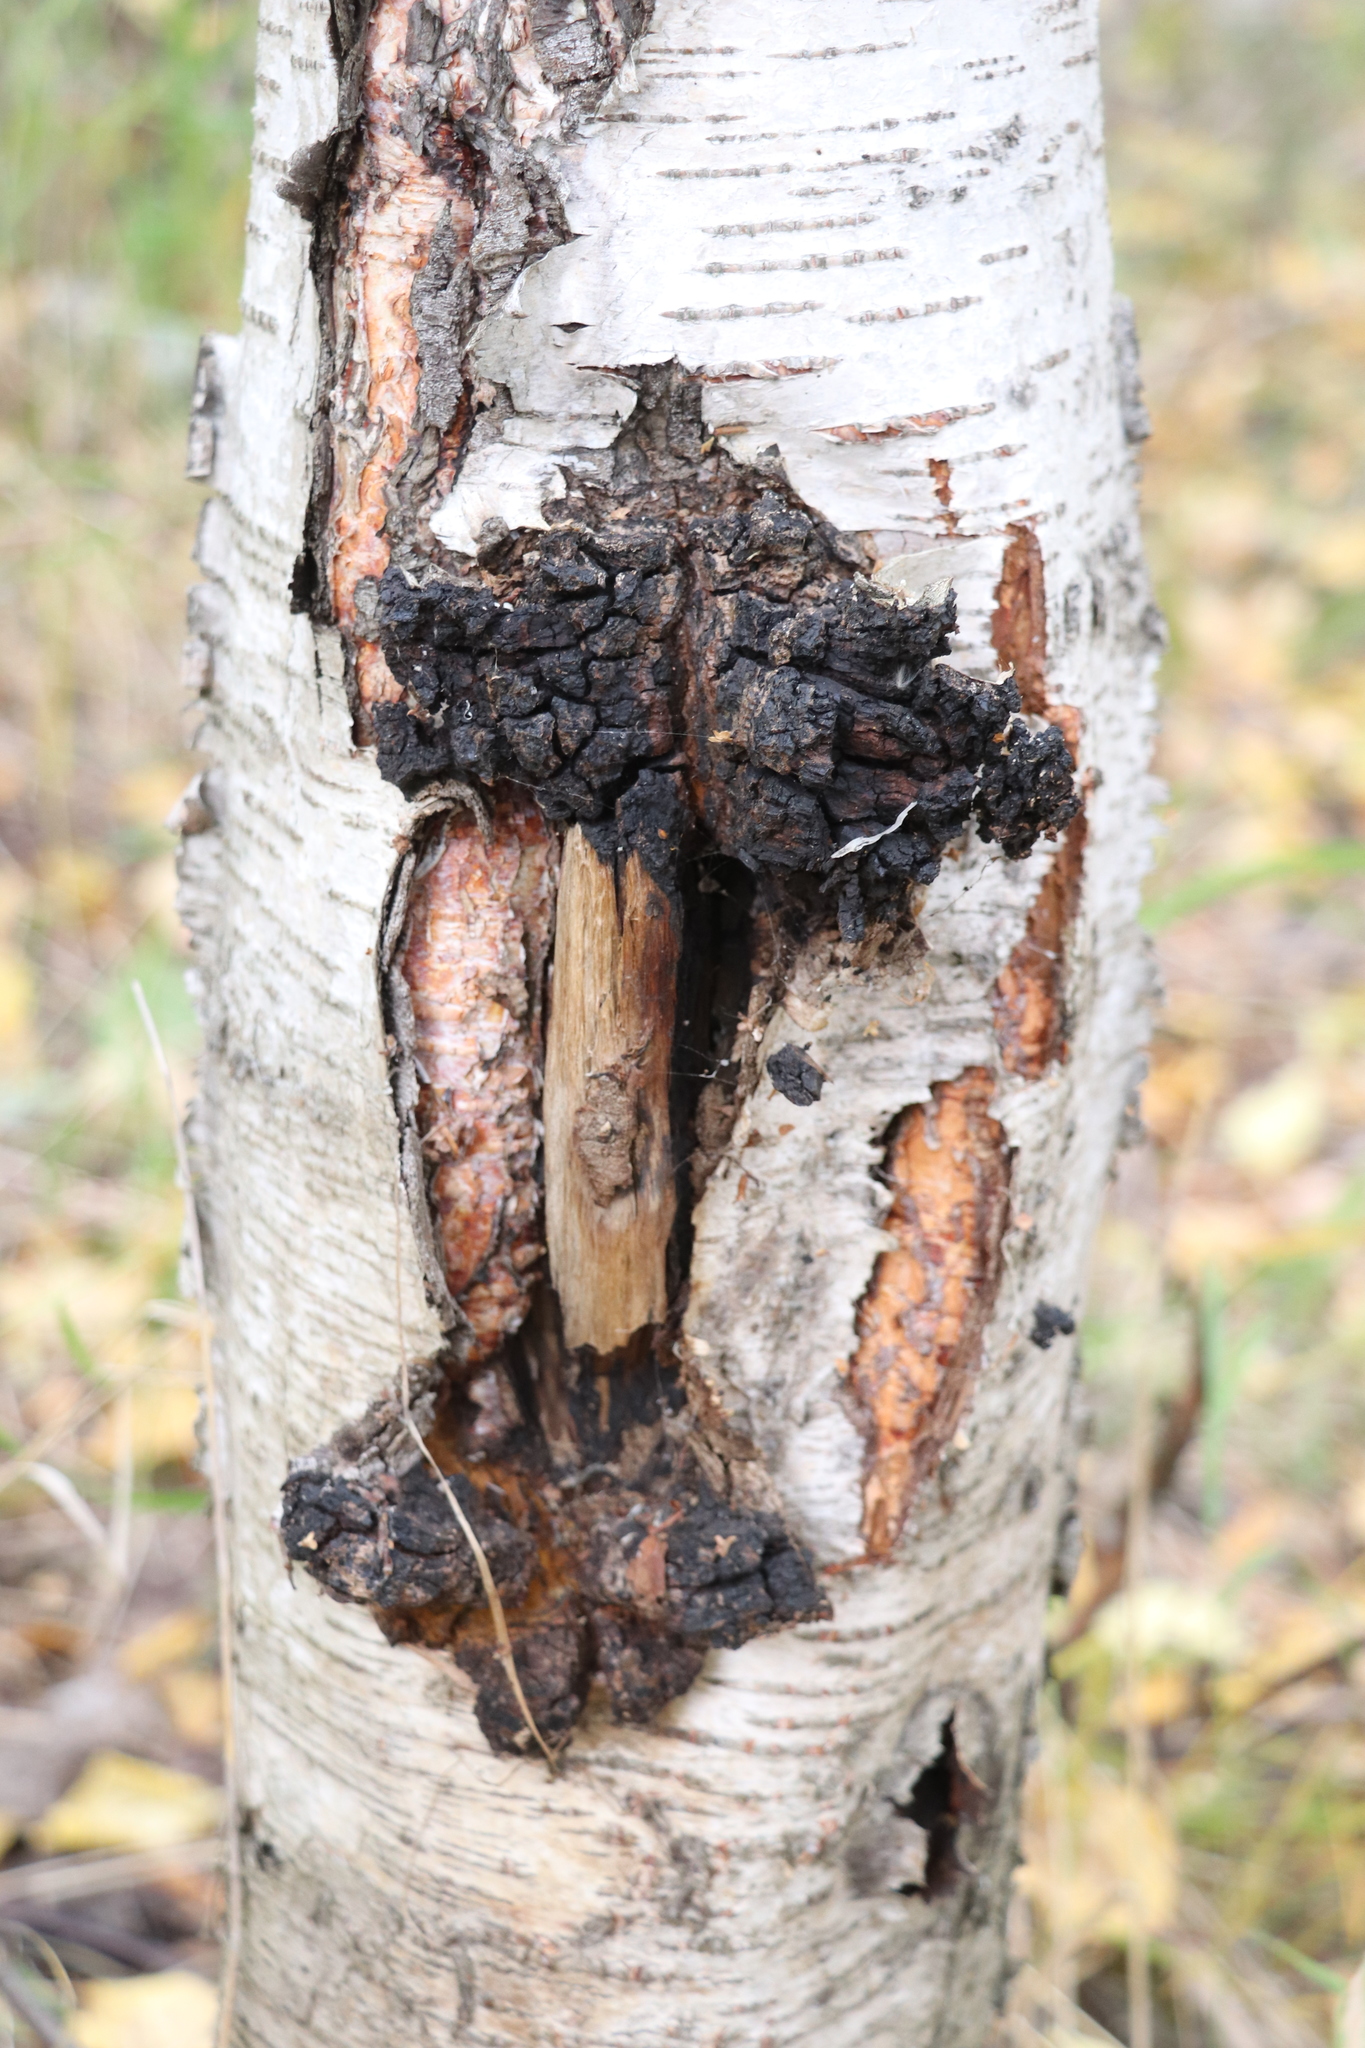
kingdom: Fungi
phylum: Basidiomycota
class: Agaricomycetes
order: Hymenochaetales
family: Hymenochaetaceae
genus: Inonotus
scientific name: Inonotus obliquus
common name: Chaga
